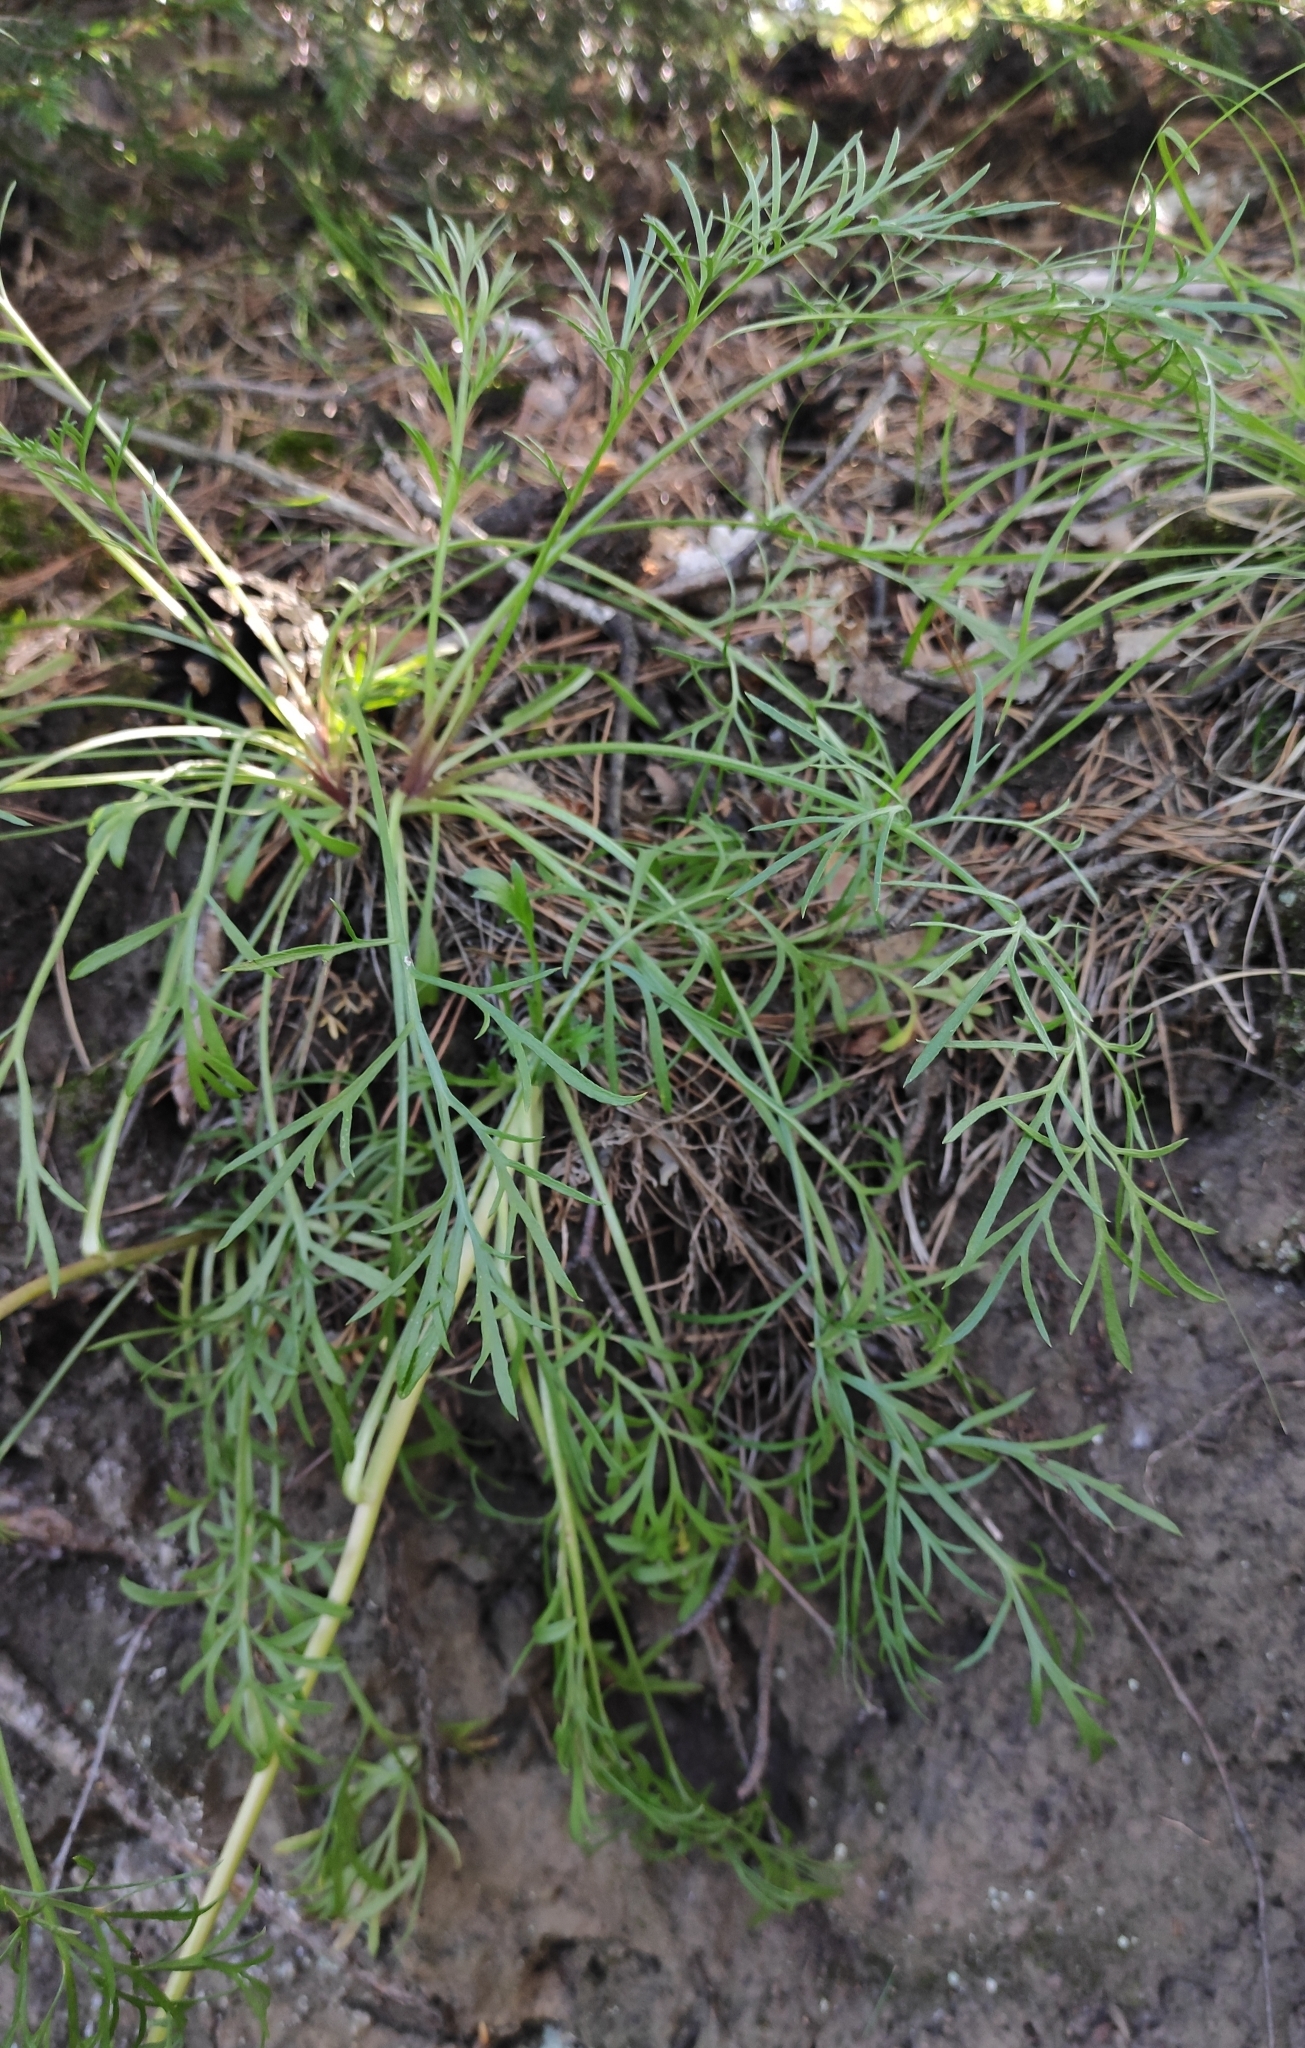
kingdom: Plantae
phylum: Tracheophyta
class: Magnoliopsida
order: Asterales
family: Asteraceae
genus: Artemisia
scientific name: Artemisia pubescens
